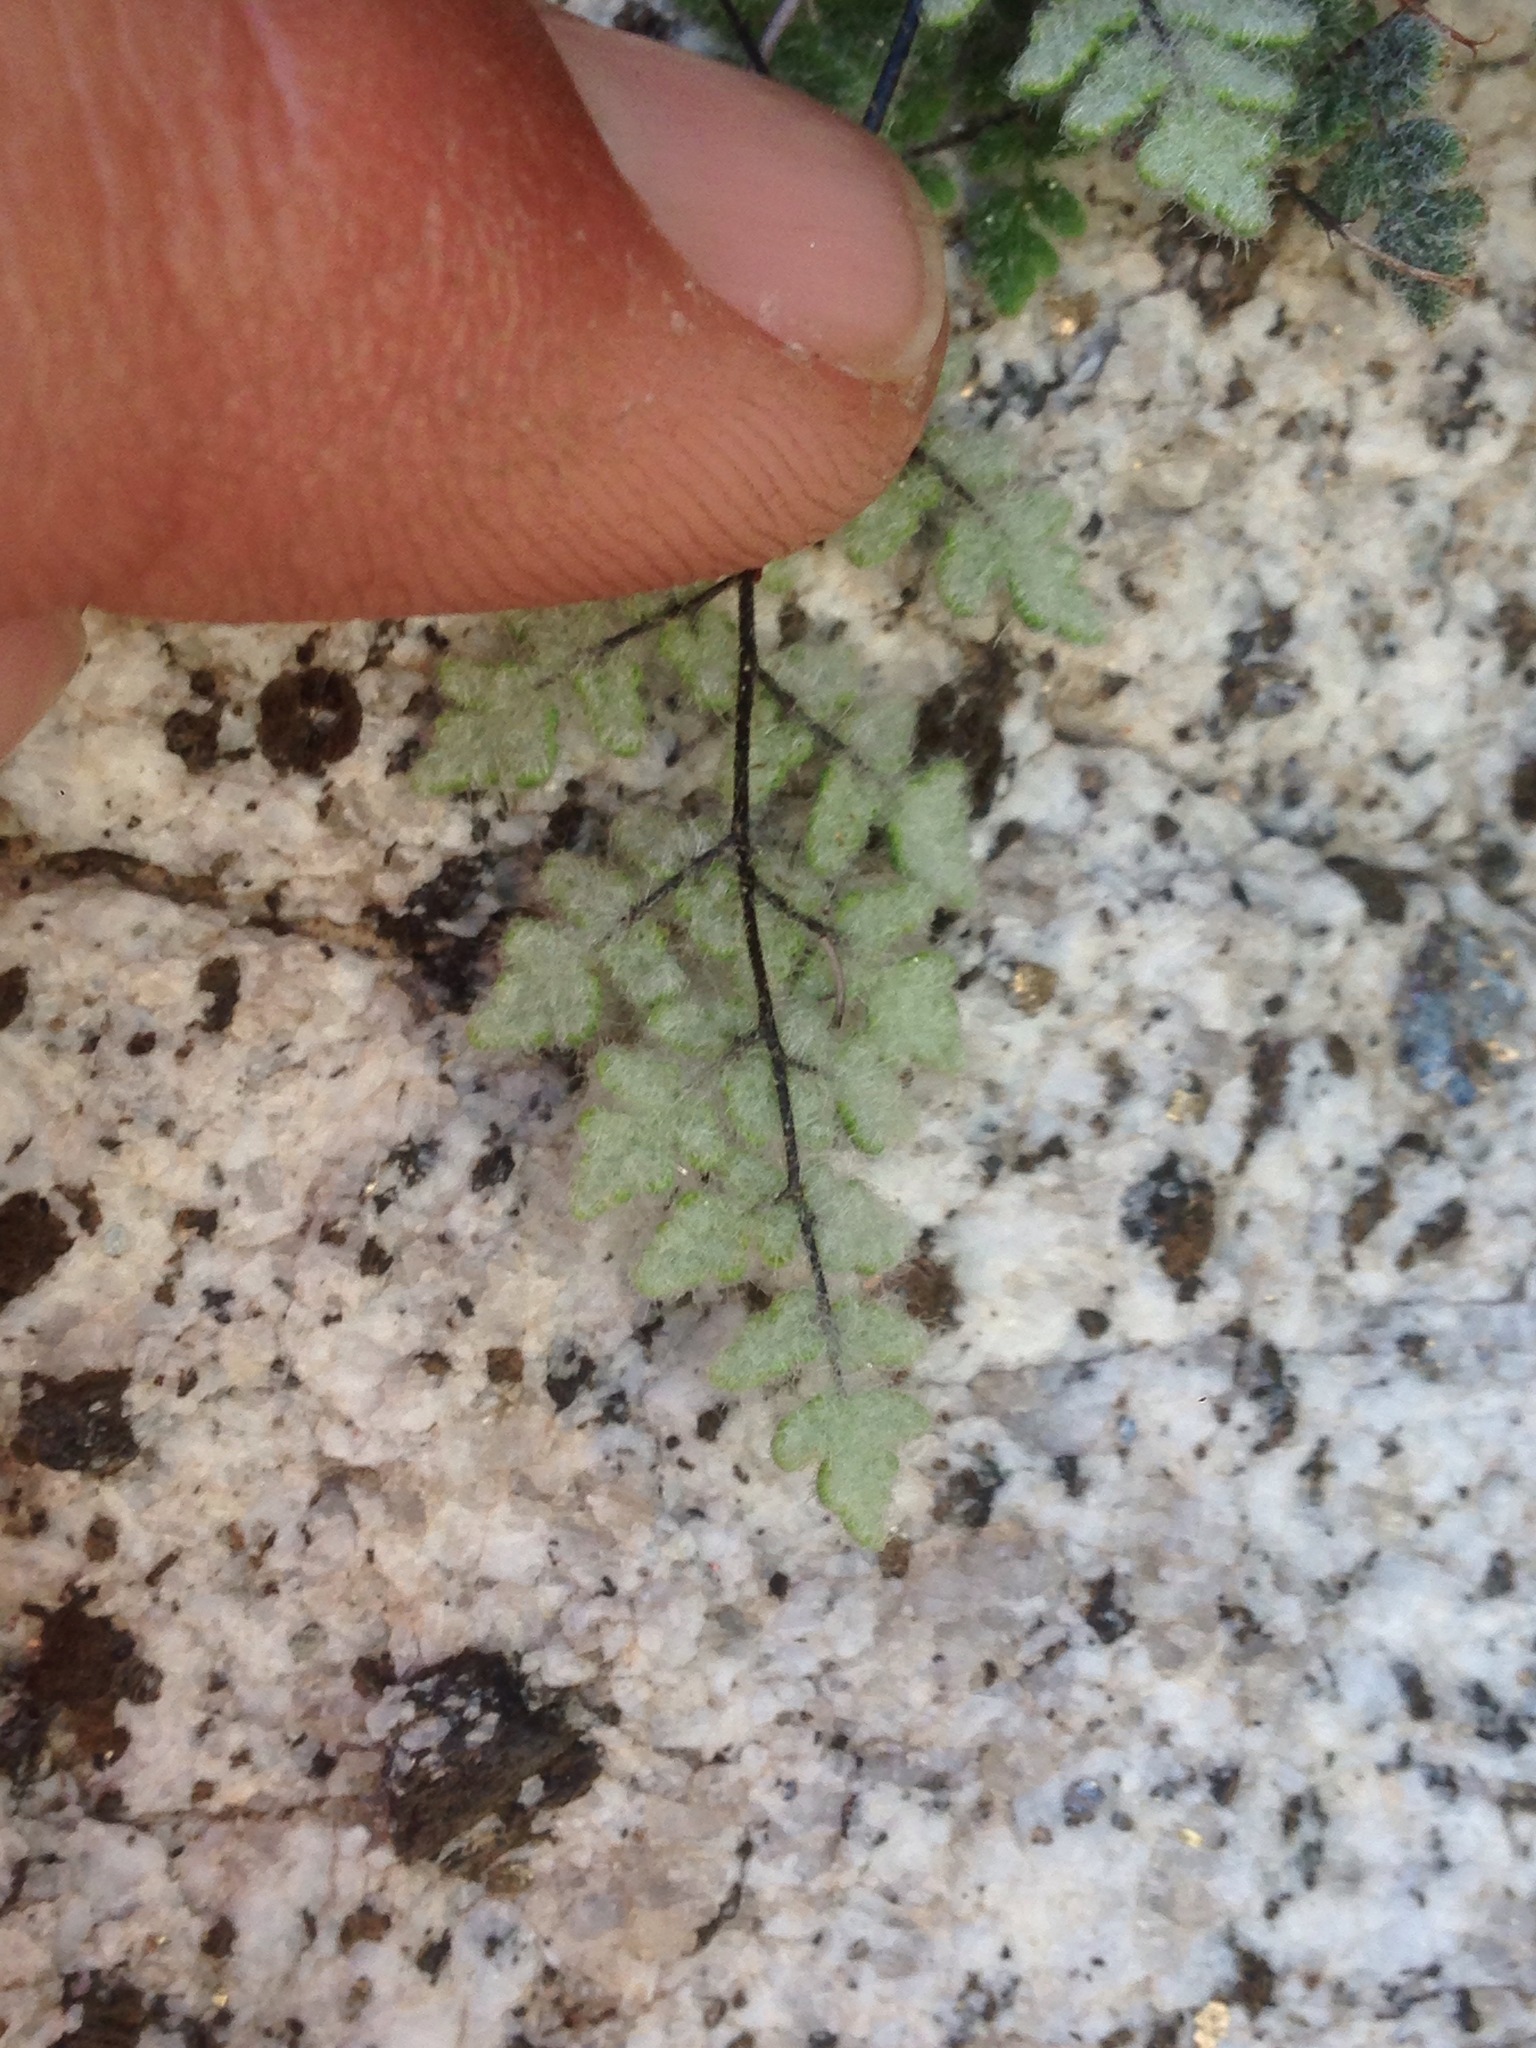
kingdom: Plantae
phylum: Tracheophyta
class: Polypodiopsida
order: Polypodiales
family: Pteridaceae
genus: Myriopteris
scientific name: Myriopteris parryi
